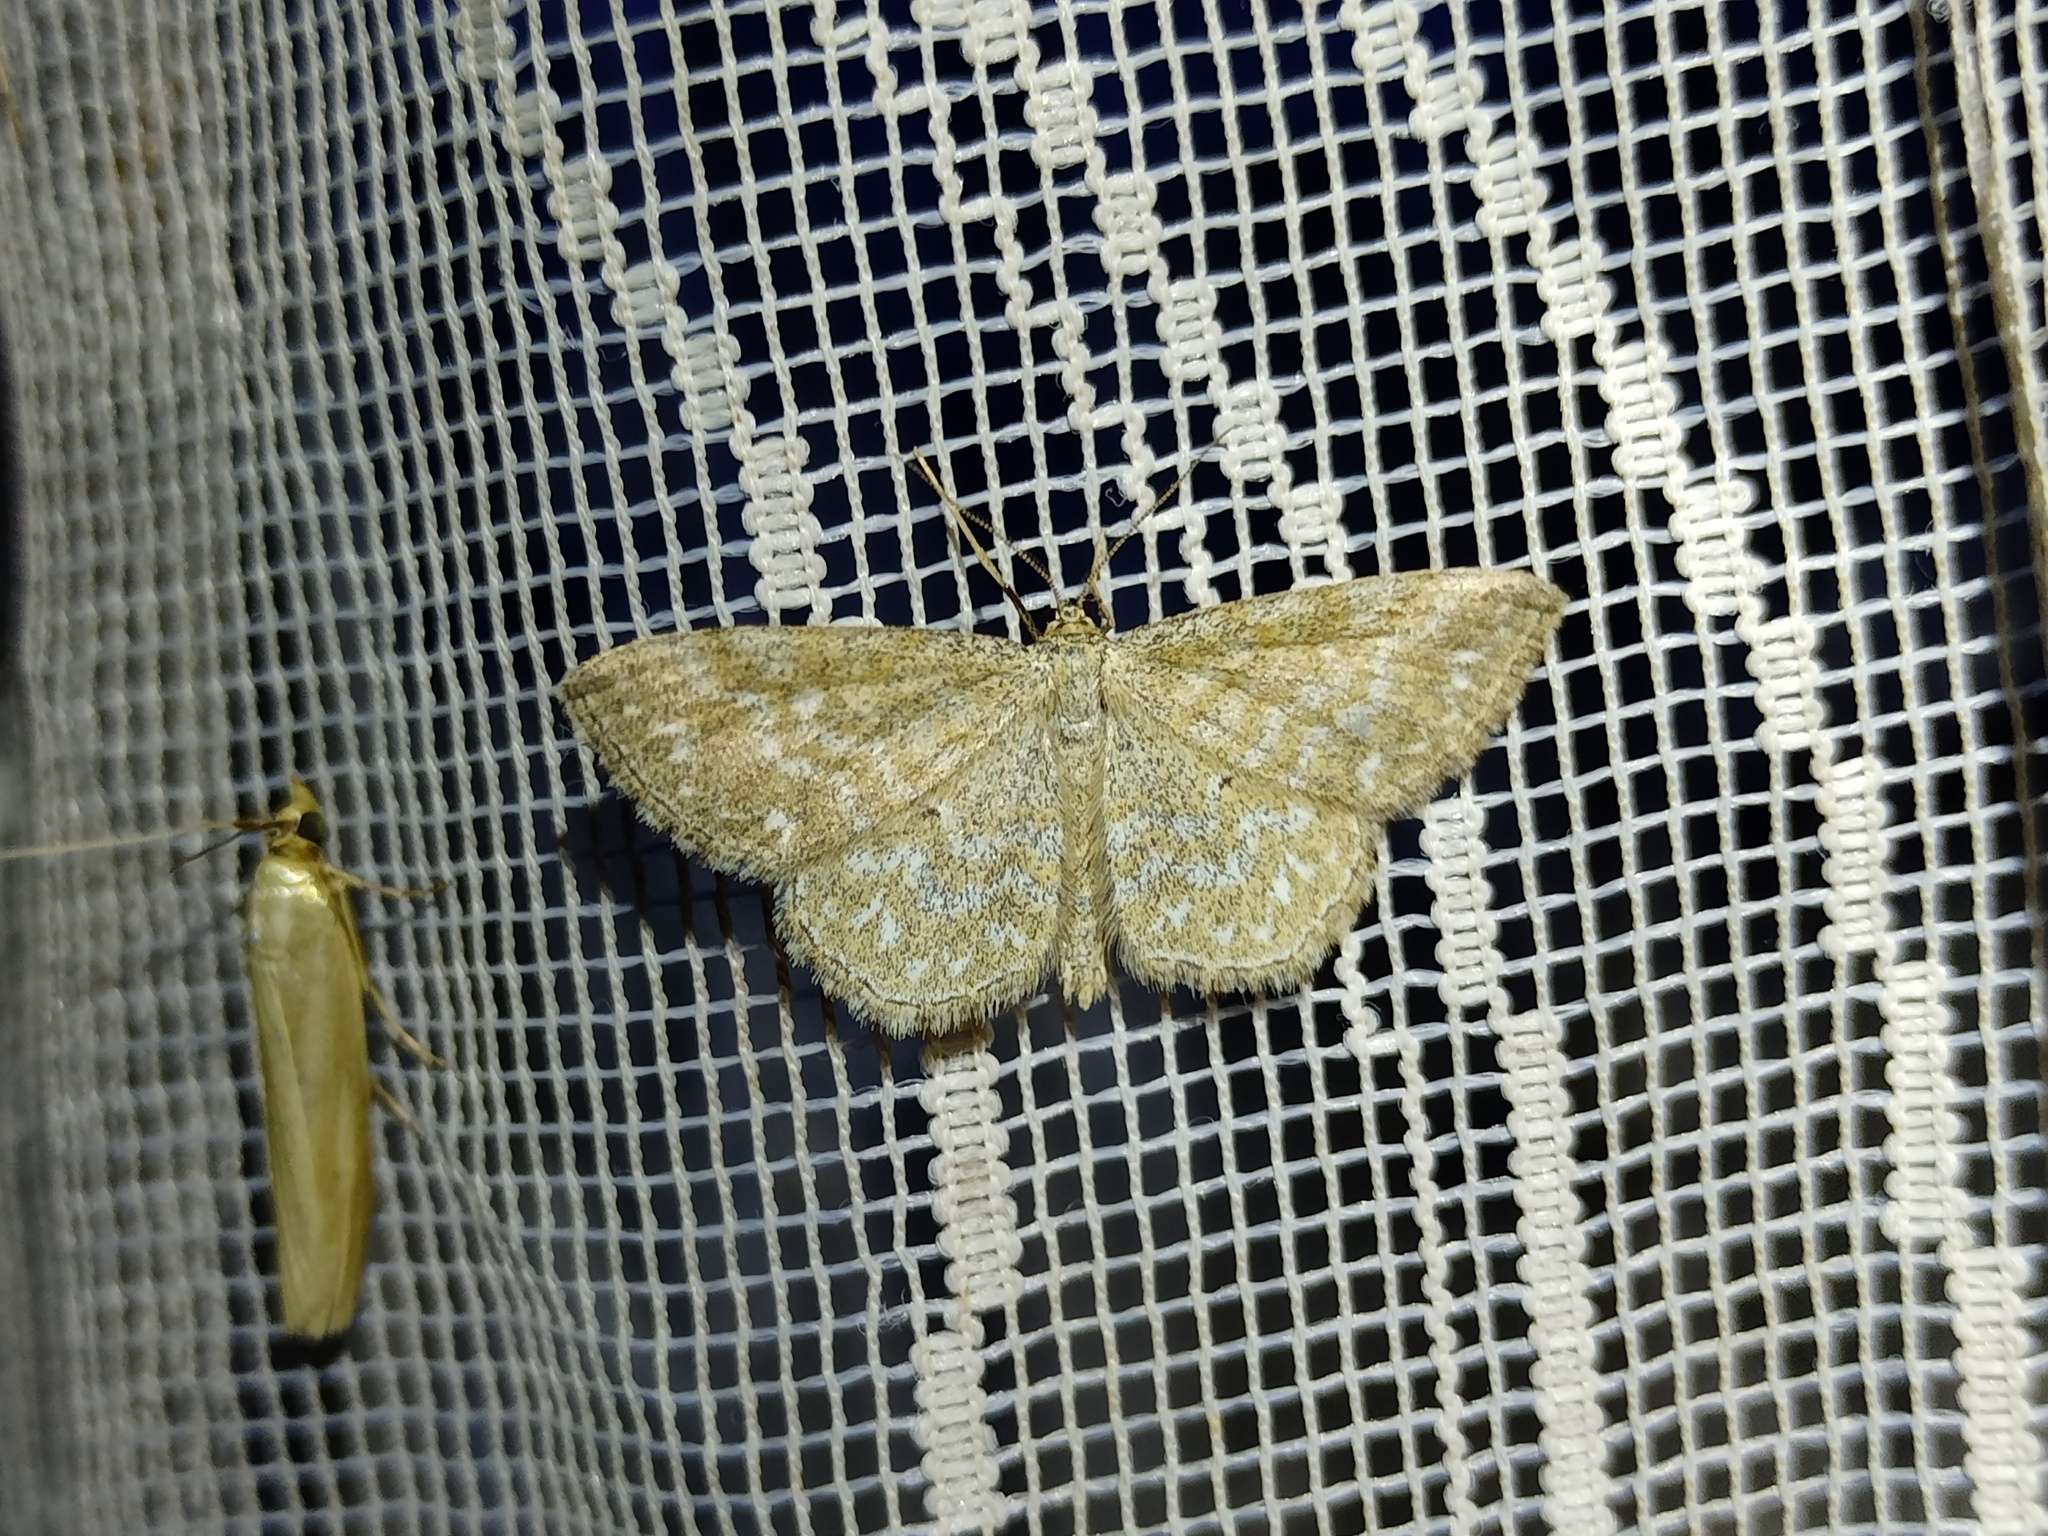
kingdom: Animalia
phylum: Arthropoda
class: Insecta
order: Lepidoptera
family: Geometridae
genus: Scopula
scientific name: Scopula immorata
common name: Lewes wave
